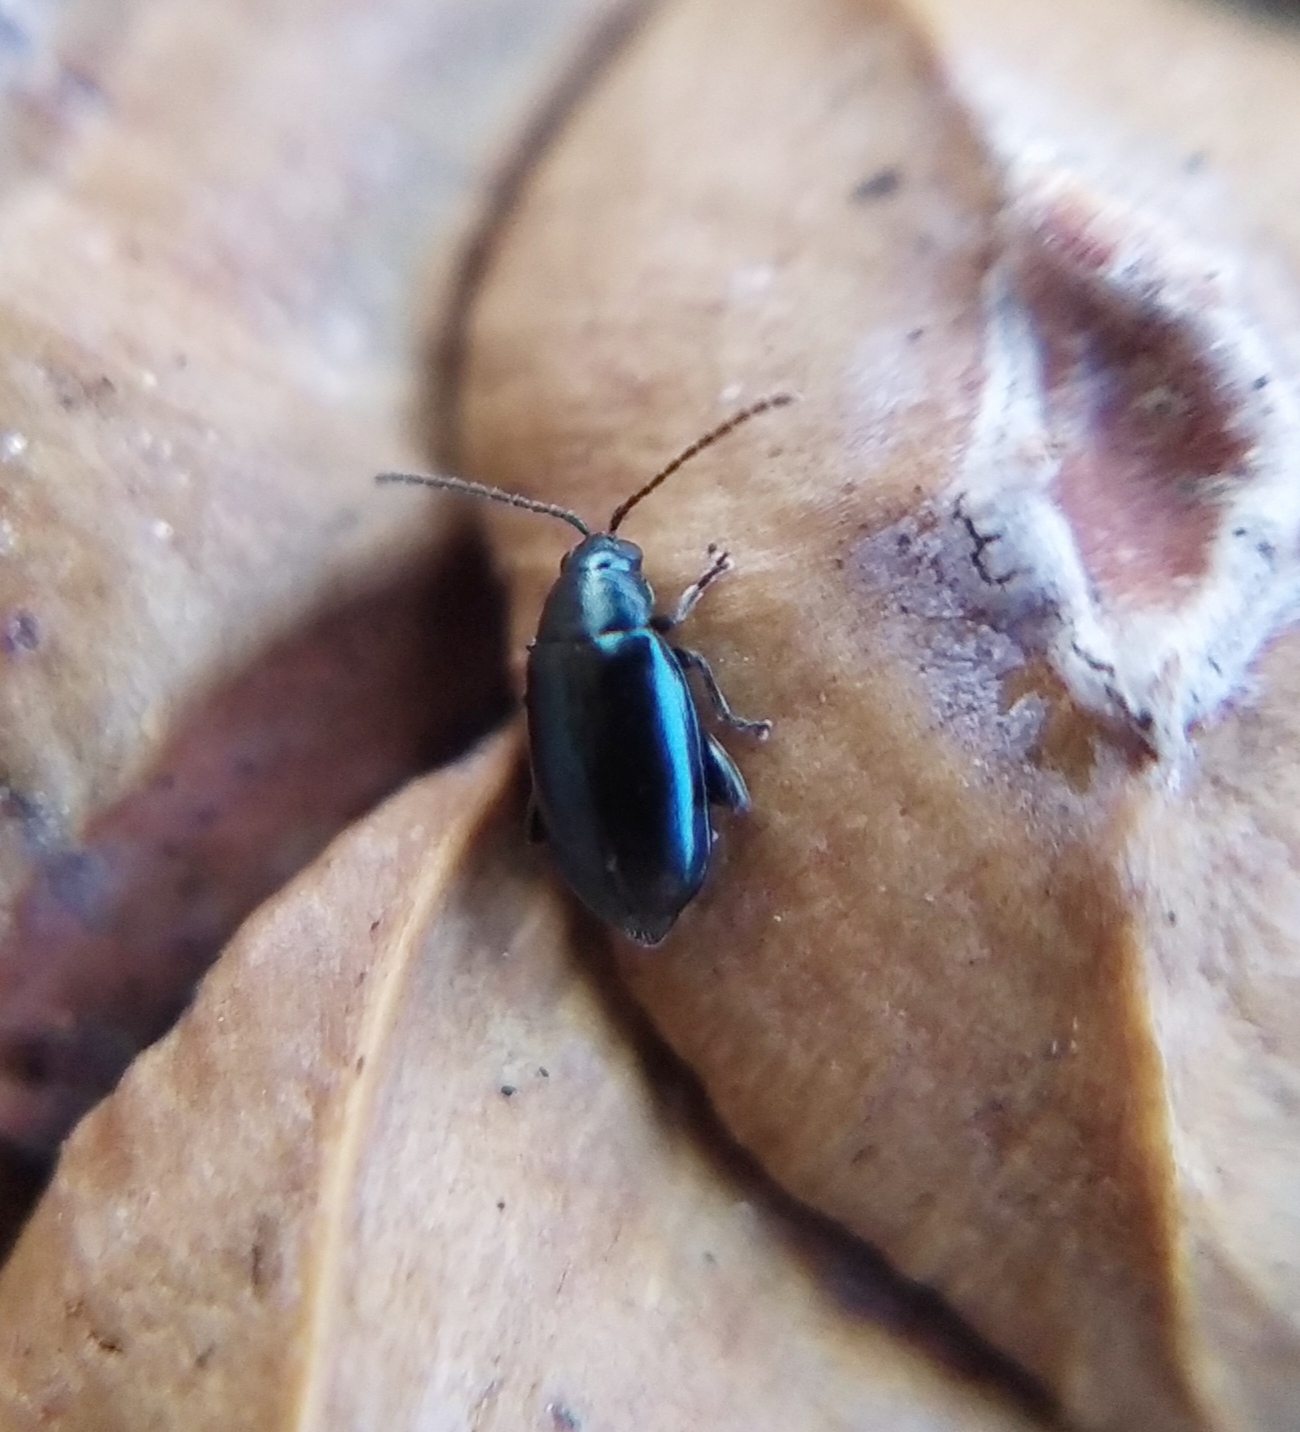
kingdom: Animalia
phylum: Arthropoda
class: Insecta
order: Coleoptera
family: Chrysomelidae
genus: Phyllotreta
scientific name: Phyllotreta nigripes
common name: Turnip flea beetle
